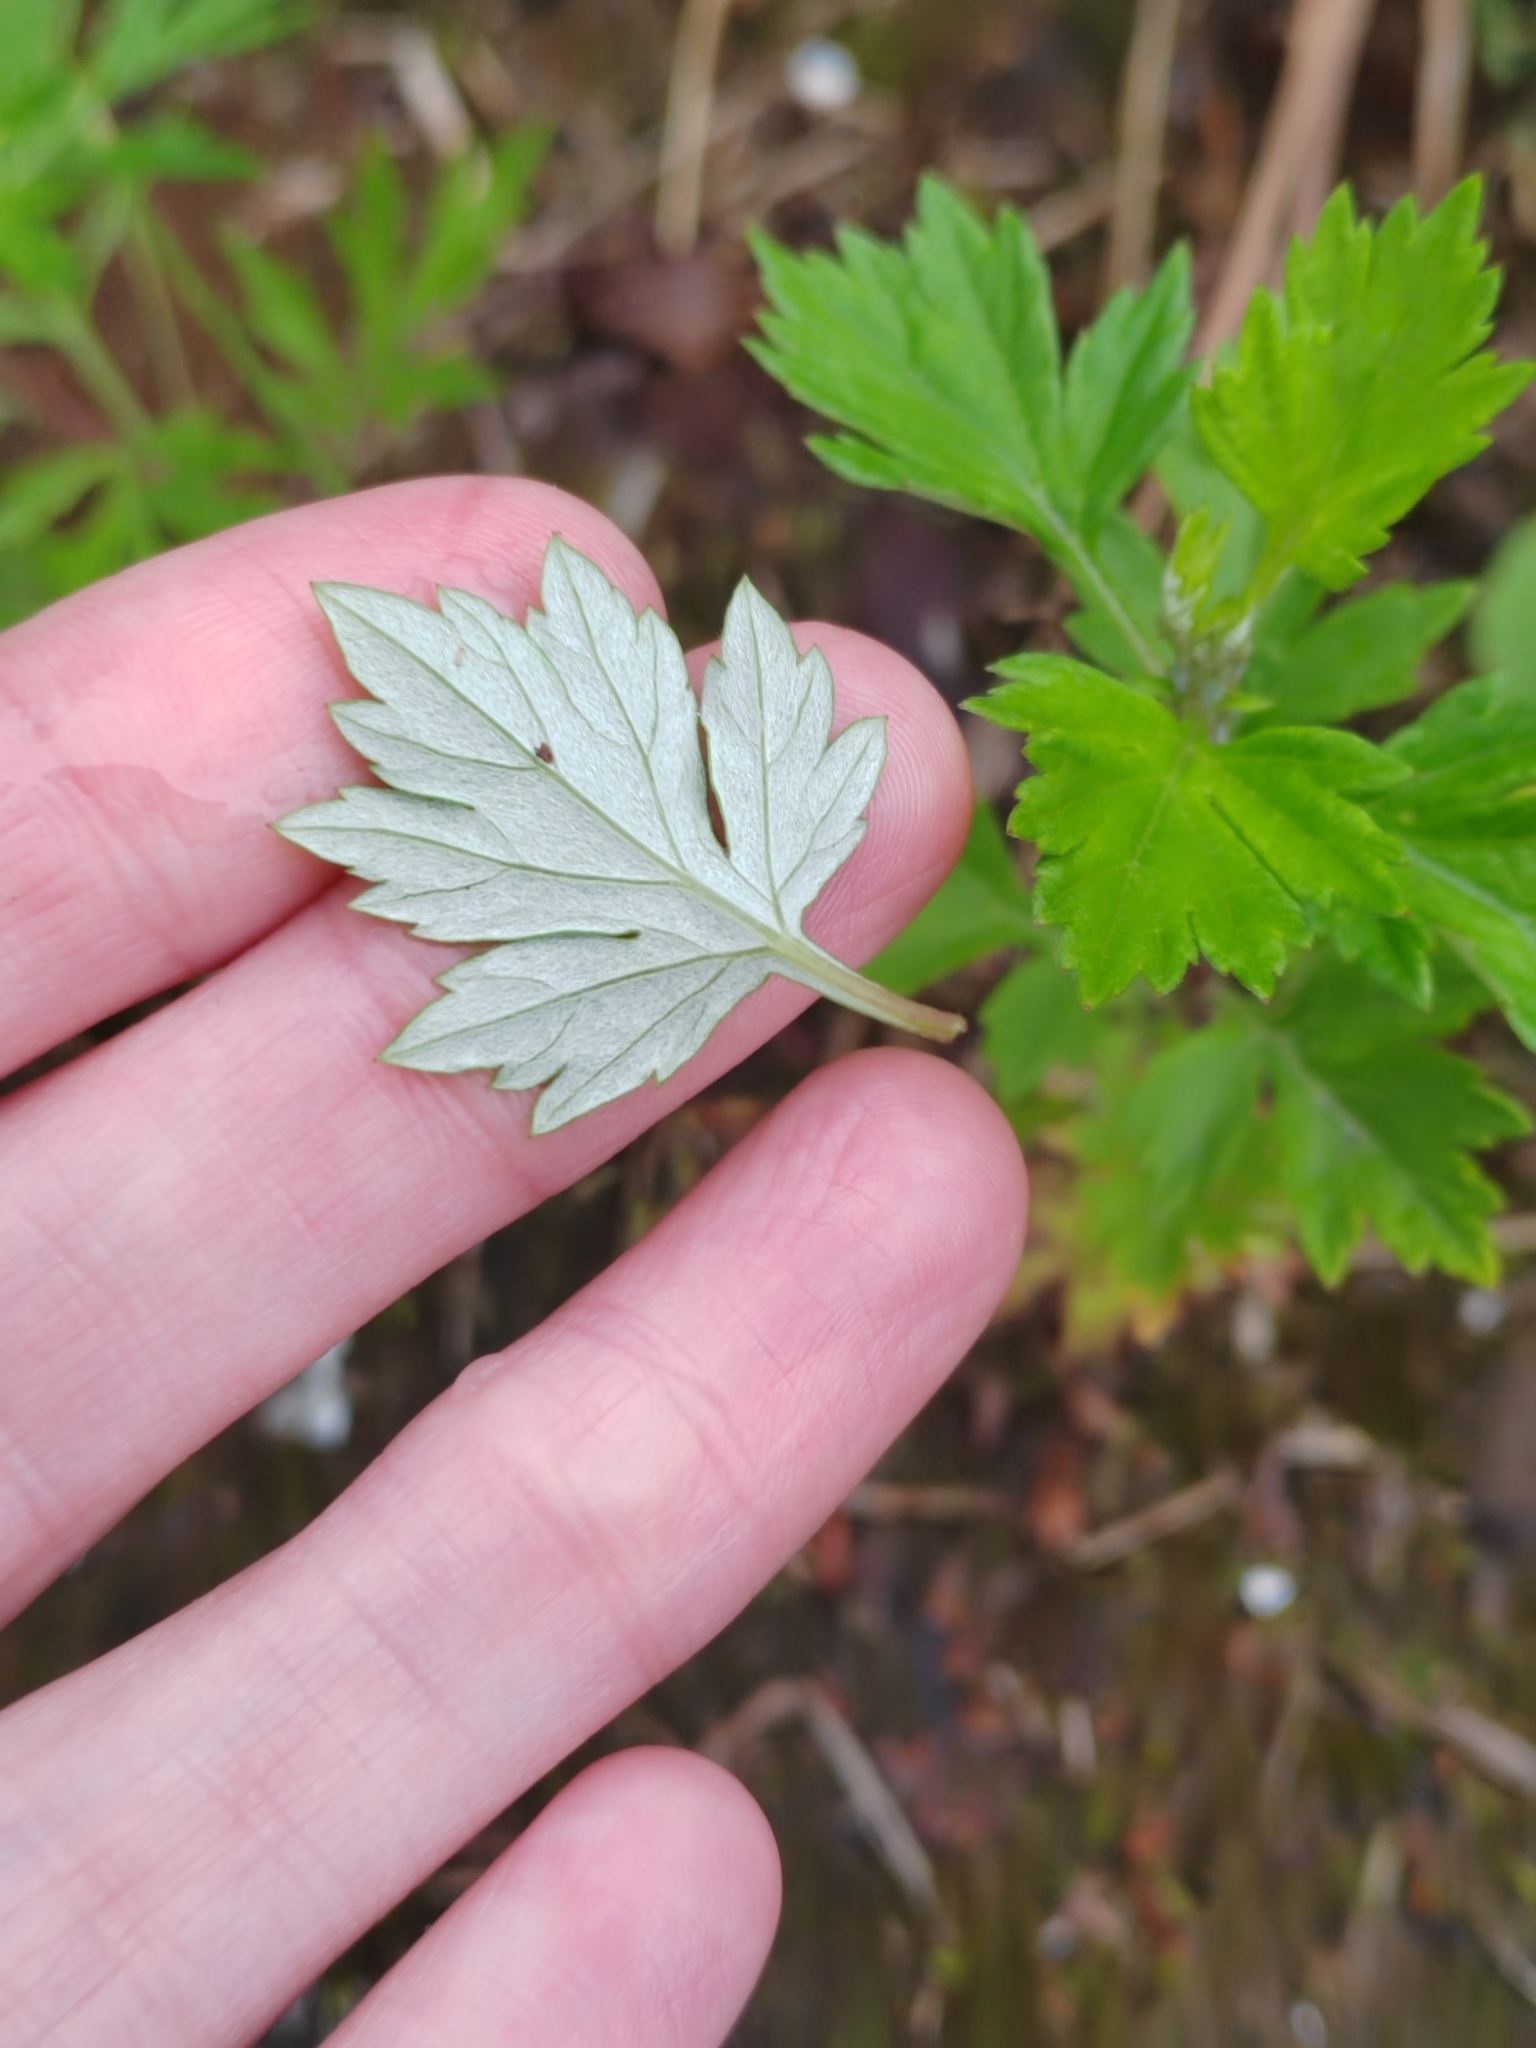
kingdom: Plantae
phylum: Tracheophyta
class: Magnoliopsida
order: Asterales
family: Asteraceae
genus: Artemisia
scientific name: Artemisia vulgaris
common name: Mugwort
